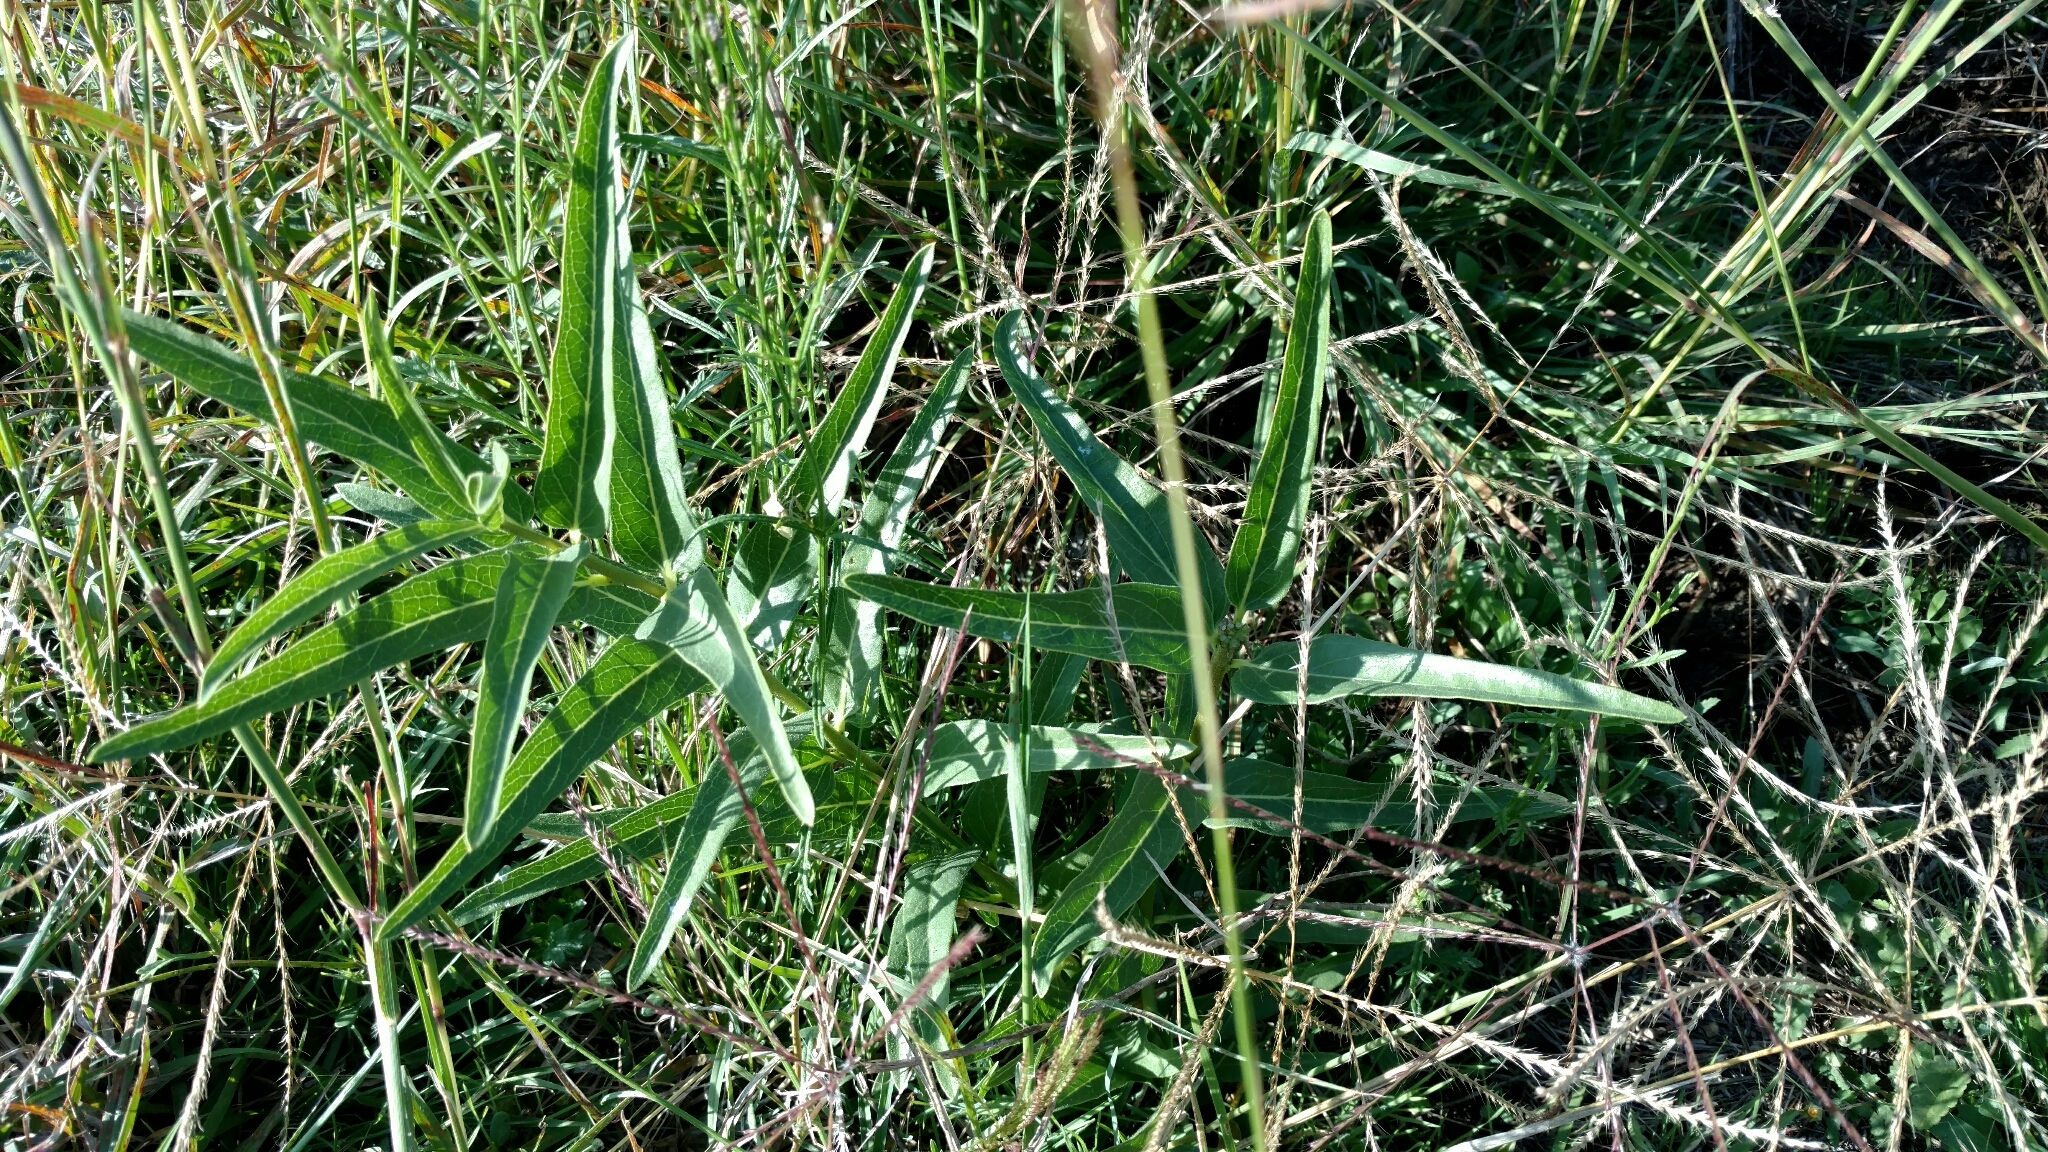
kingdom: Plantae
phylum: Tracheophyta
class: Magnoliopsida
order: Gentianales
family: Apocynaceae
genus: Asclepias
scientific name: Asclepias asperula
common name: Antelope horns
